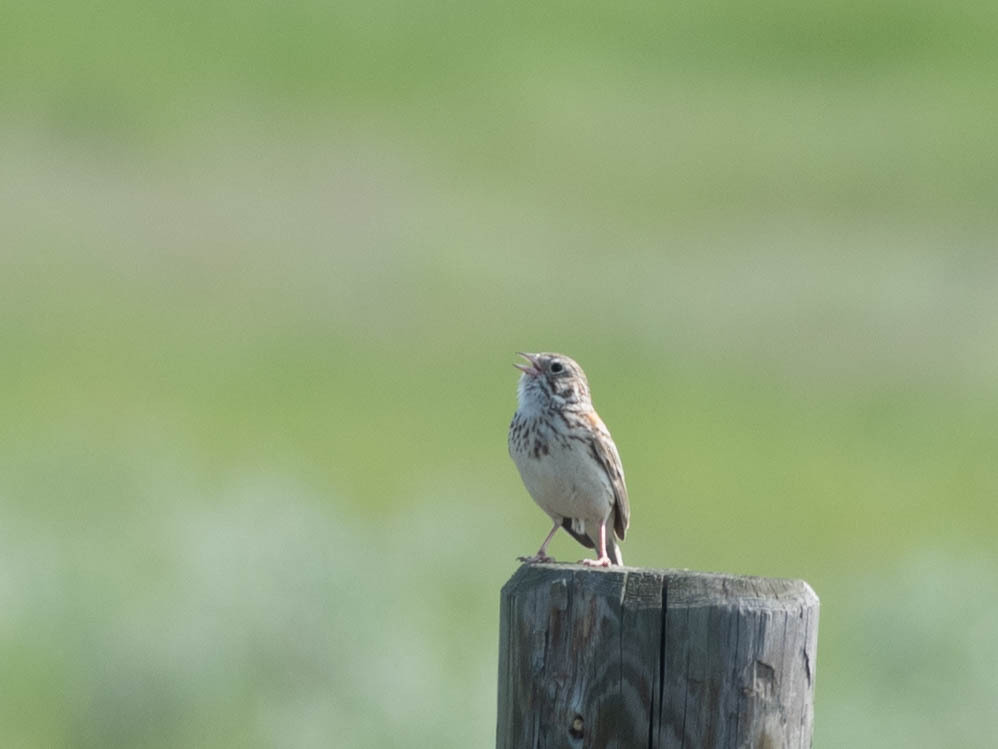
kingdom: Animalia
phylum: Chordata
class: Aves
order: Passeriformes
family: Passerellidae
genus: Pooecetes
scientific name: Pooecetes gramineus
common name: Vesper sparrow
